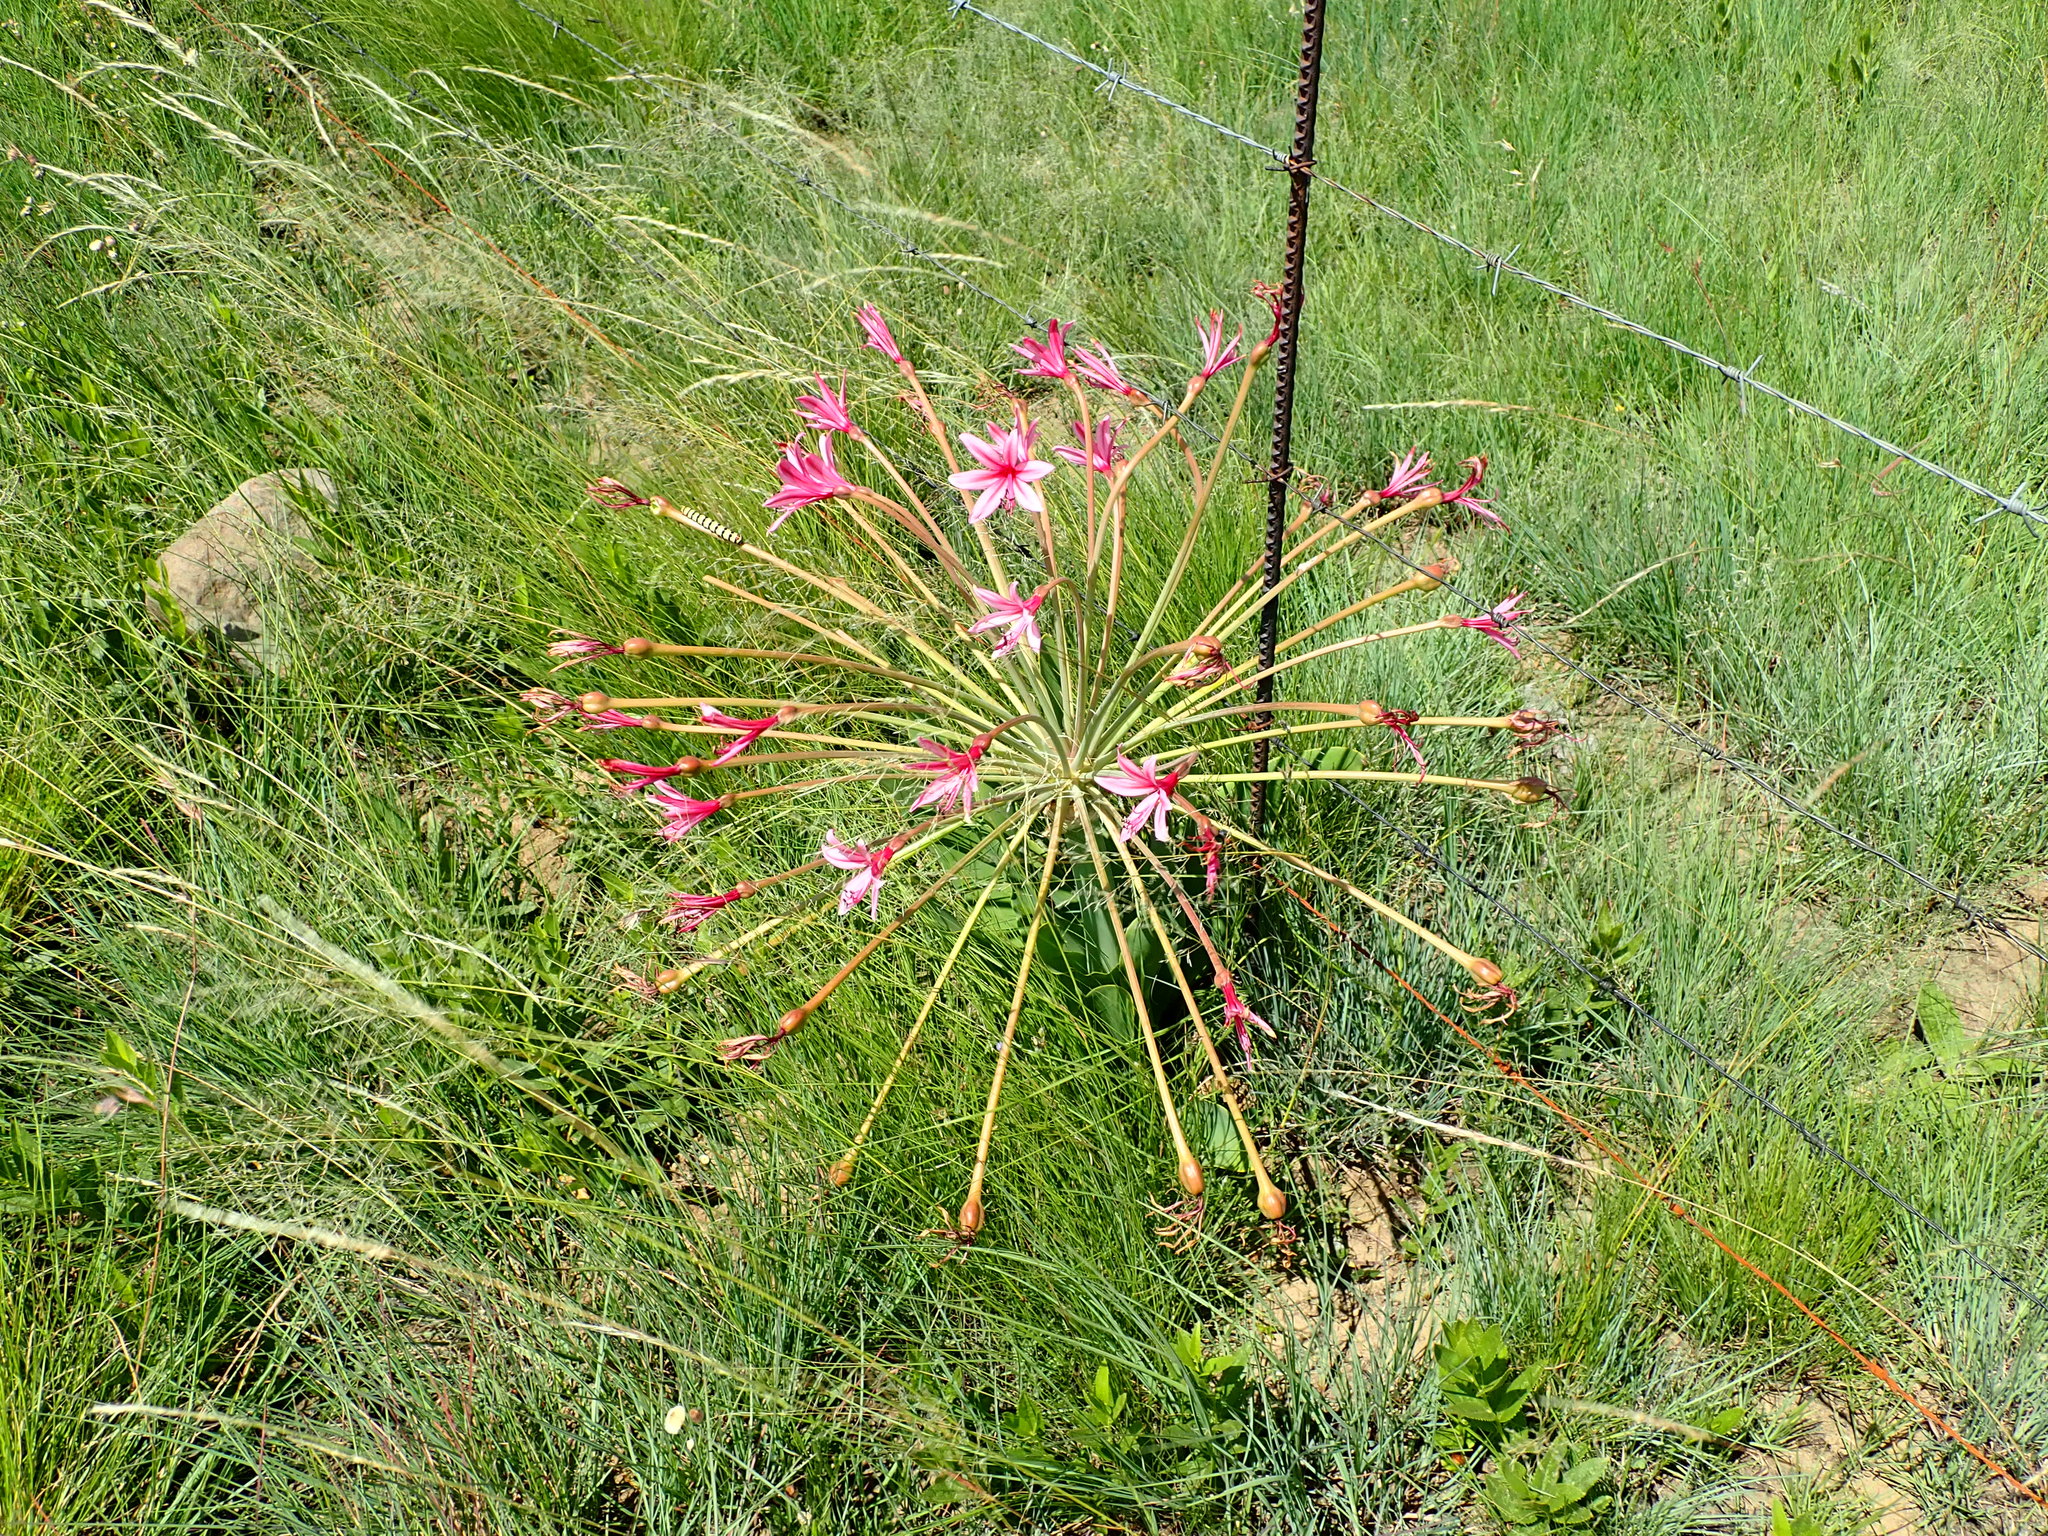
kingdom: Plantae
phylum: Tracheophyta
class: Liliopsida
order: Asparagales
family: Amaryllidaceae
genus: Brunsvigia
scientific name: Brunsvigia grandiflora
